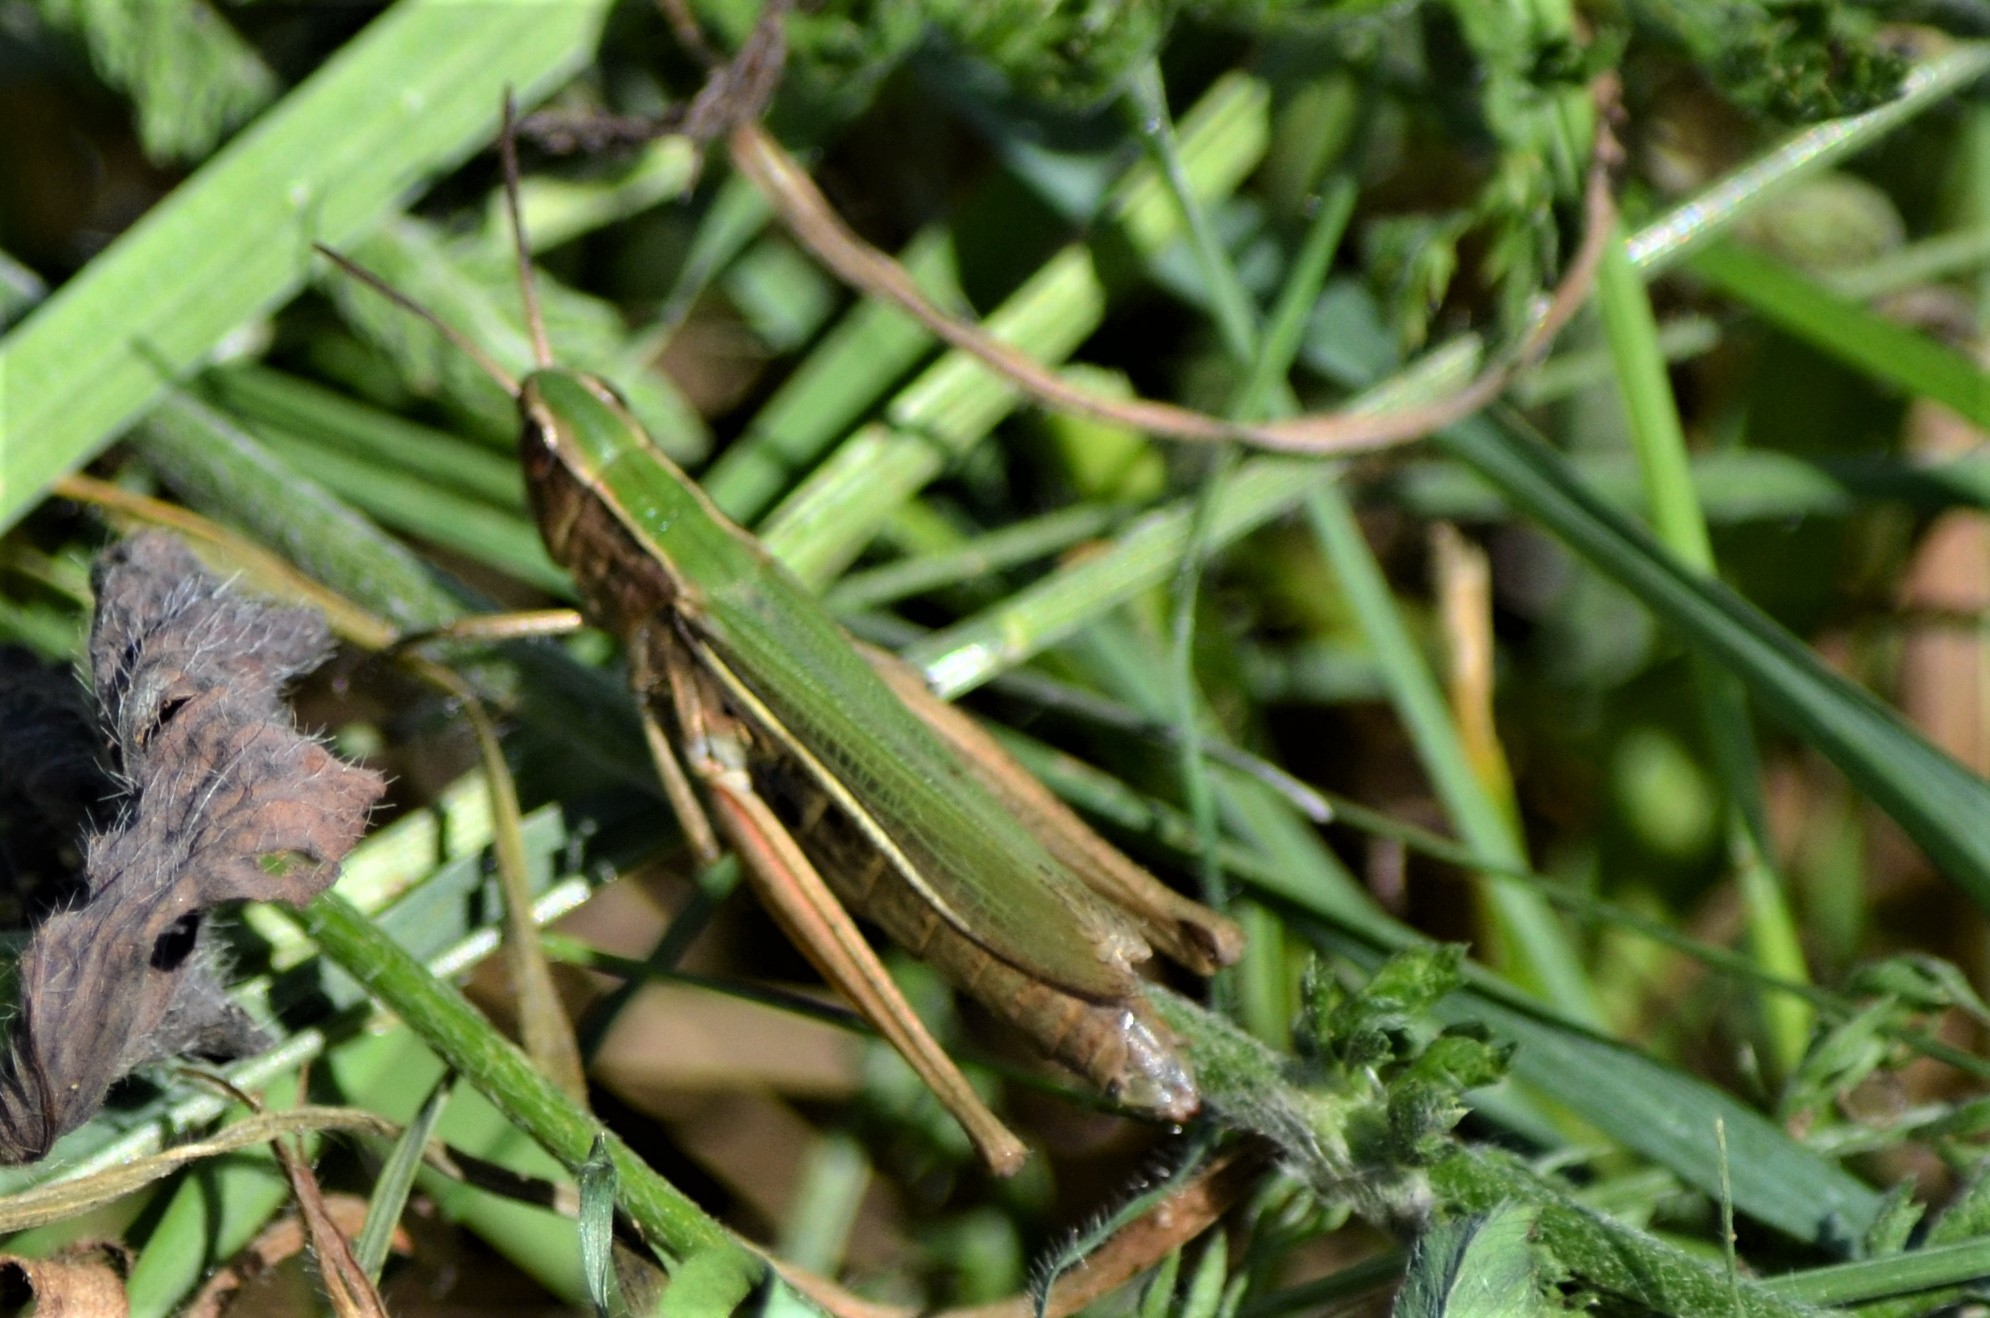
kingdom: Animalia
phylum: Arthropoda
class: Insecta
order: Orthoptera
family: Acrididae
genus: Chorthippus
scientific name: Chorthippus albomarginatus
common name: Lesser marsh grasshopper
